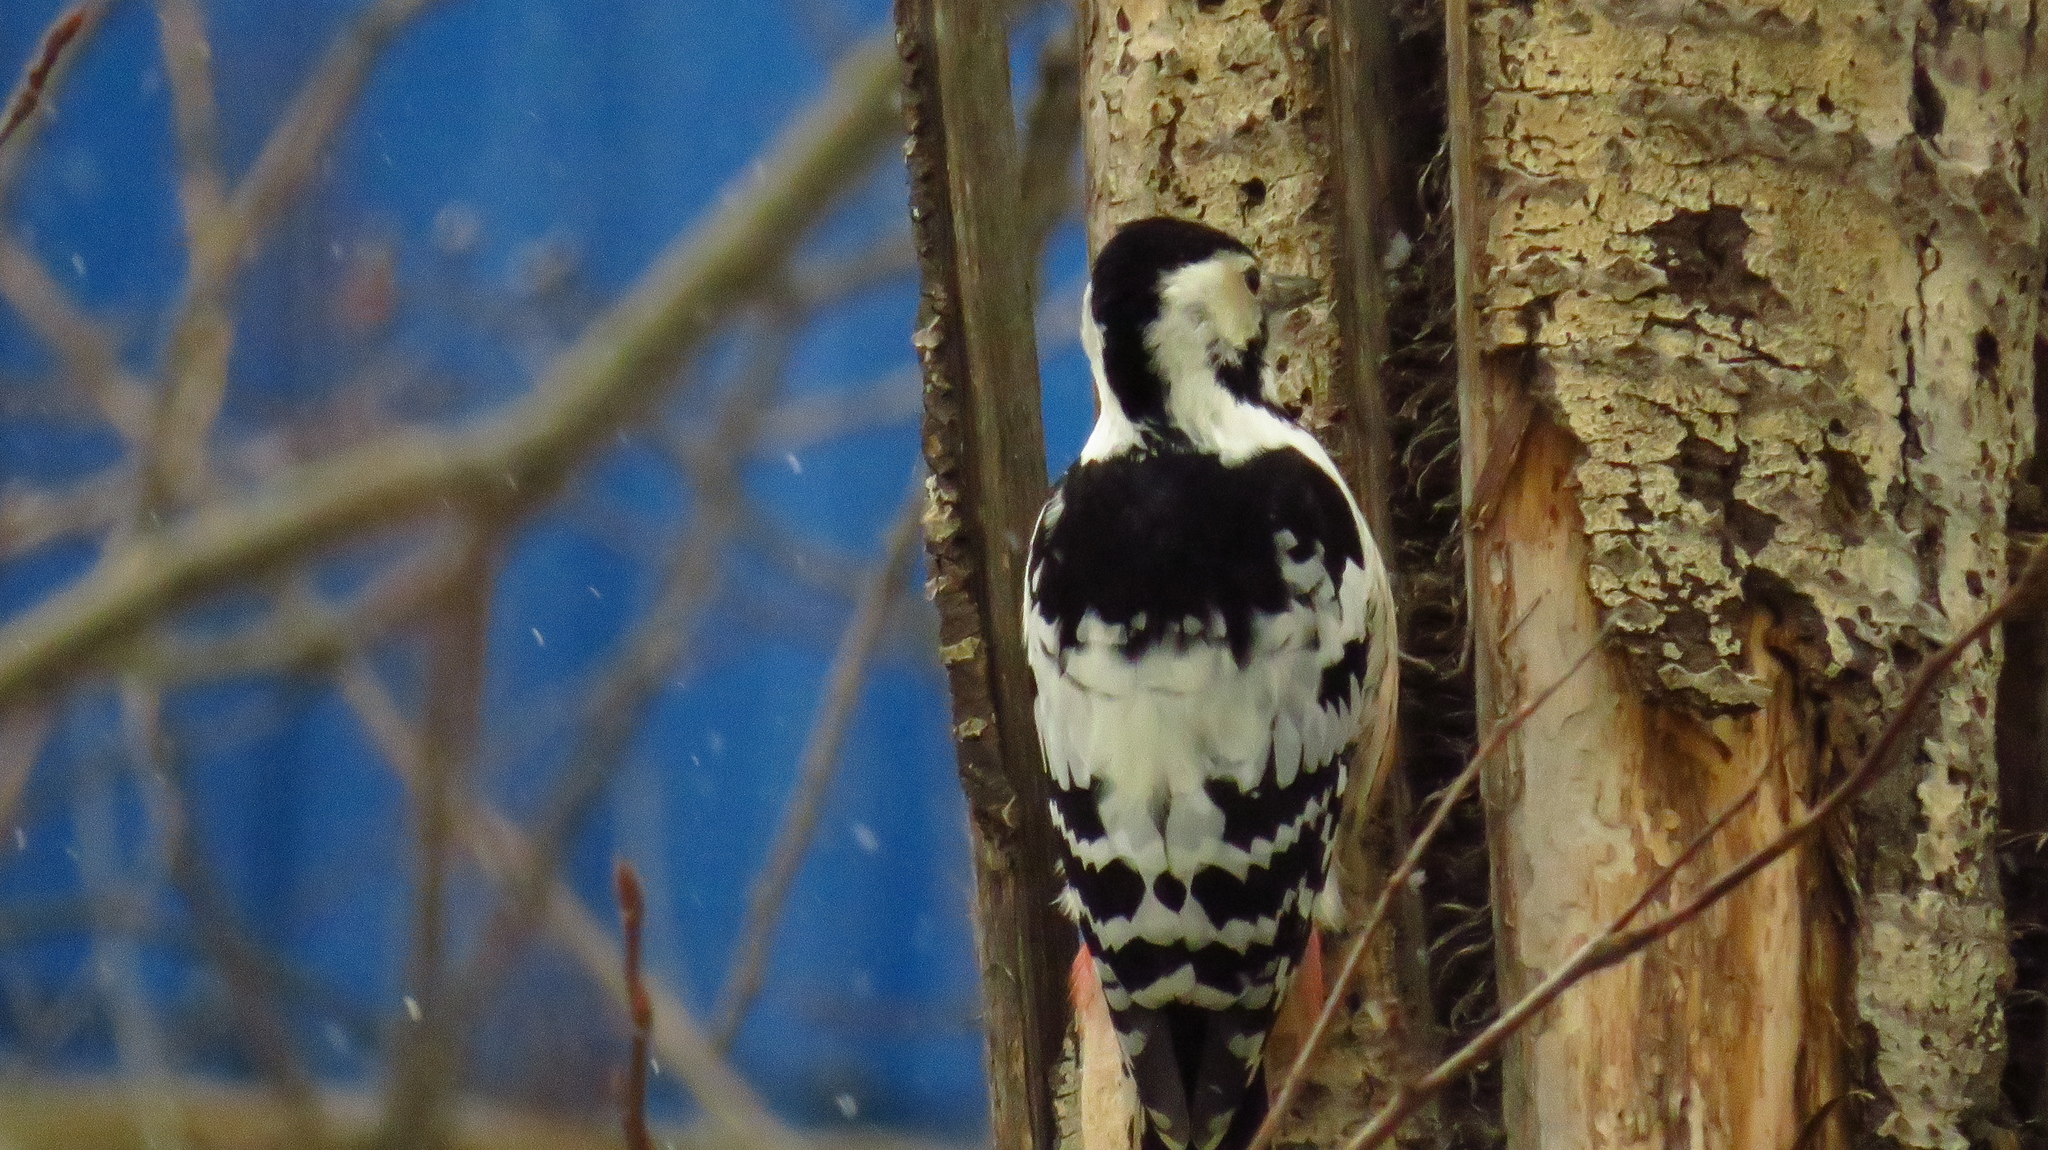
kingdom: Animalia
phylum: Chordata
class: Aves
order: Piciformes
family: Picidae
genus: Dendrocopos
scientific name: Dendrocopos leucotos
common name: White-backed woodpecker
